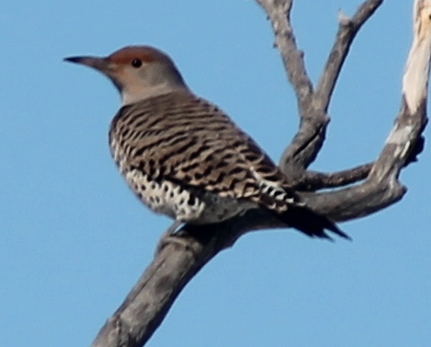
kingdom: Animalia
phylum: Chordata
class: Aves
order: Piciformes
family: Picidae
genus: Colaptes
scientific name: Colaptes auratus
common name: Northern flicker
